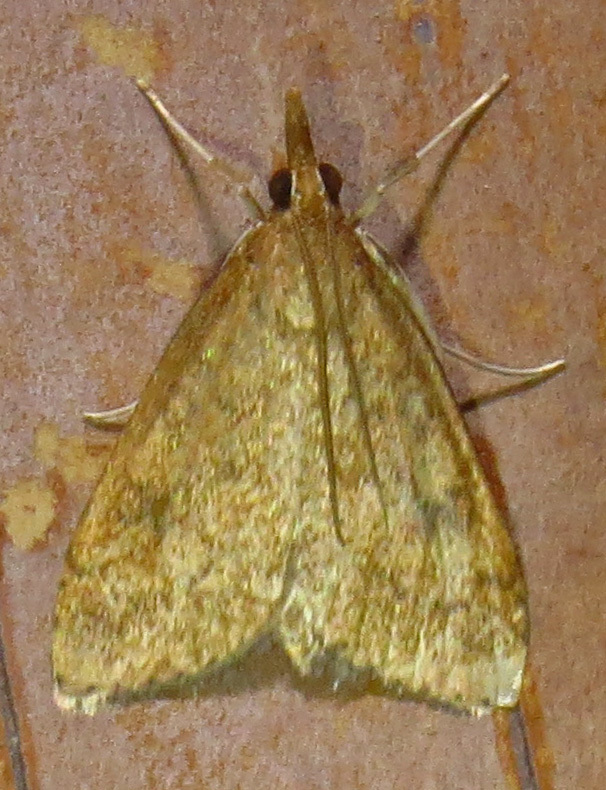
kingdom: Animalia
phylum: Arthropoda
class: Insecta
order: Lepidoptera
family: Crambidae
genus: Udea
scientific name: Udea rubigalis
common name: Celery leaftier moth
